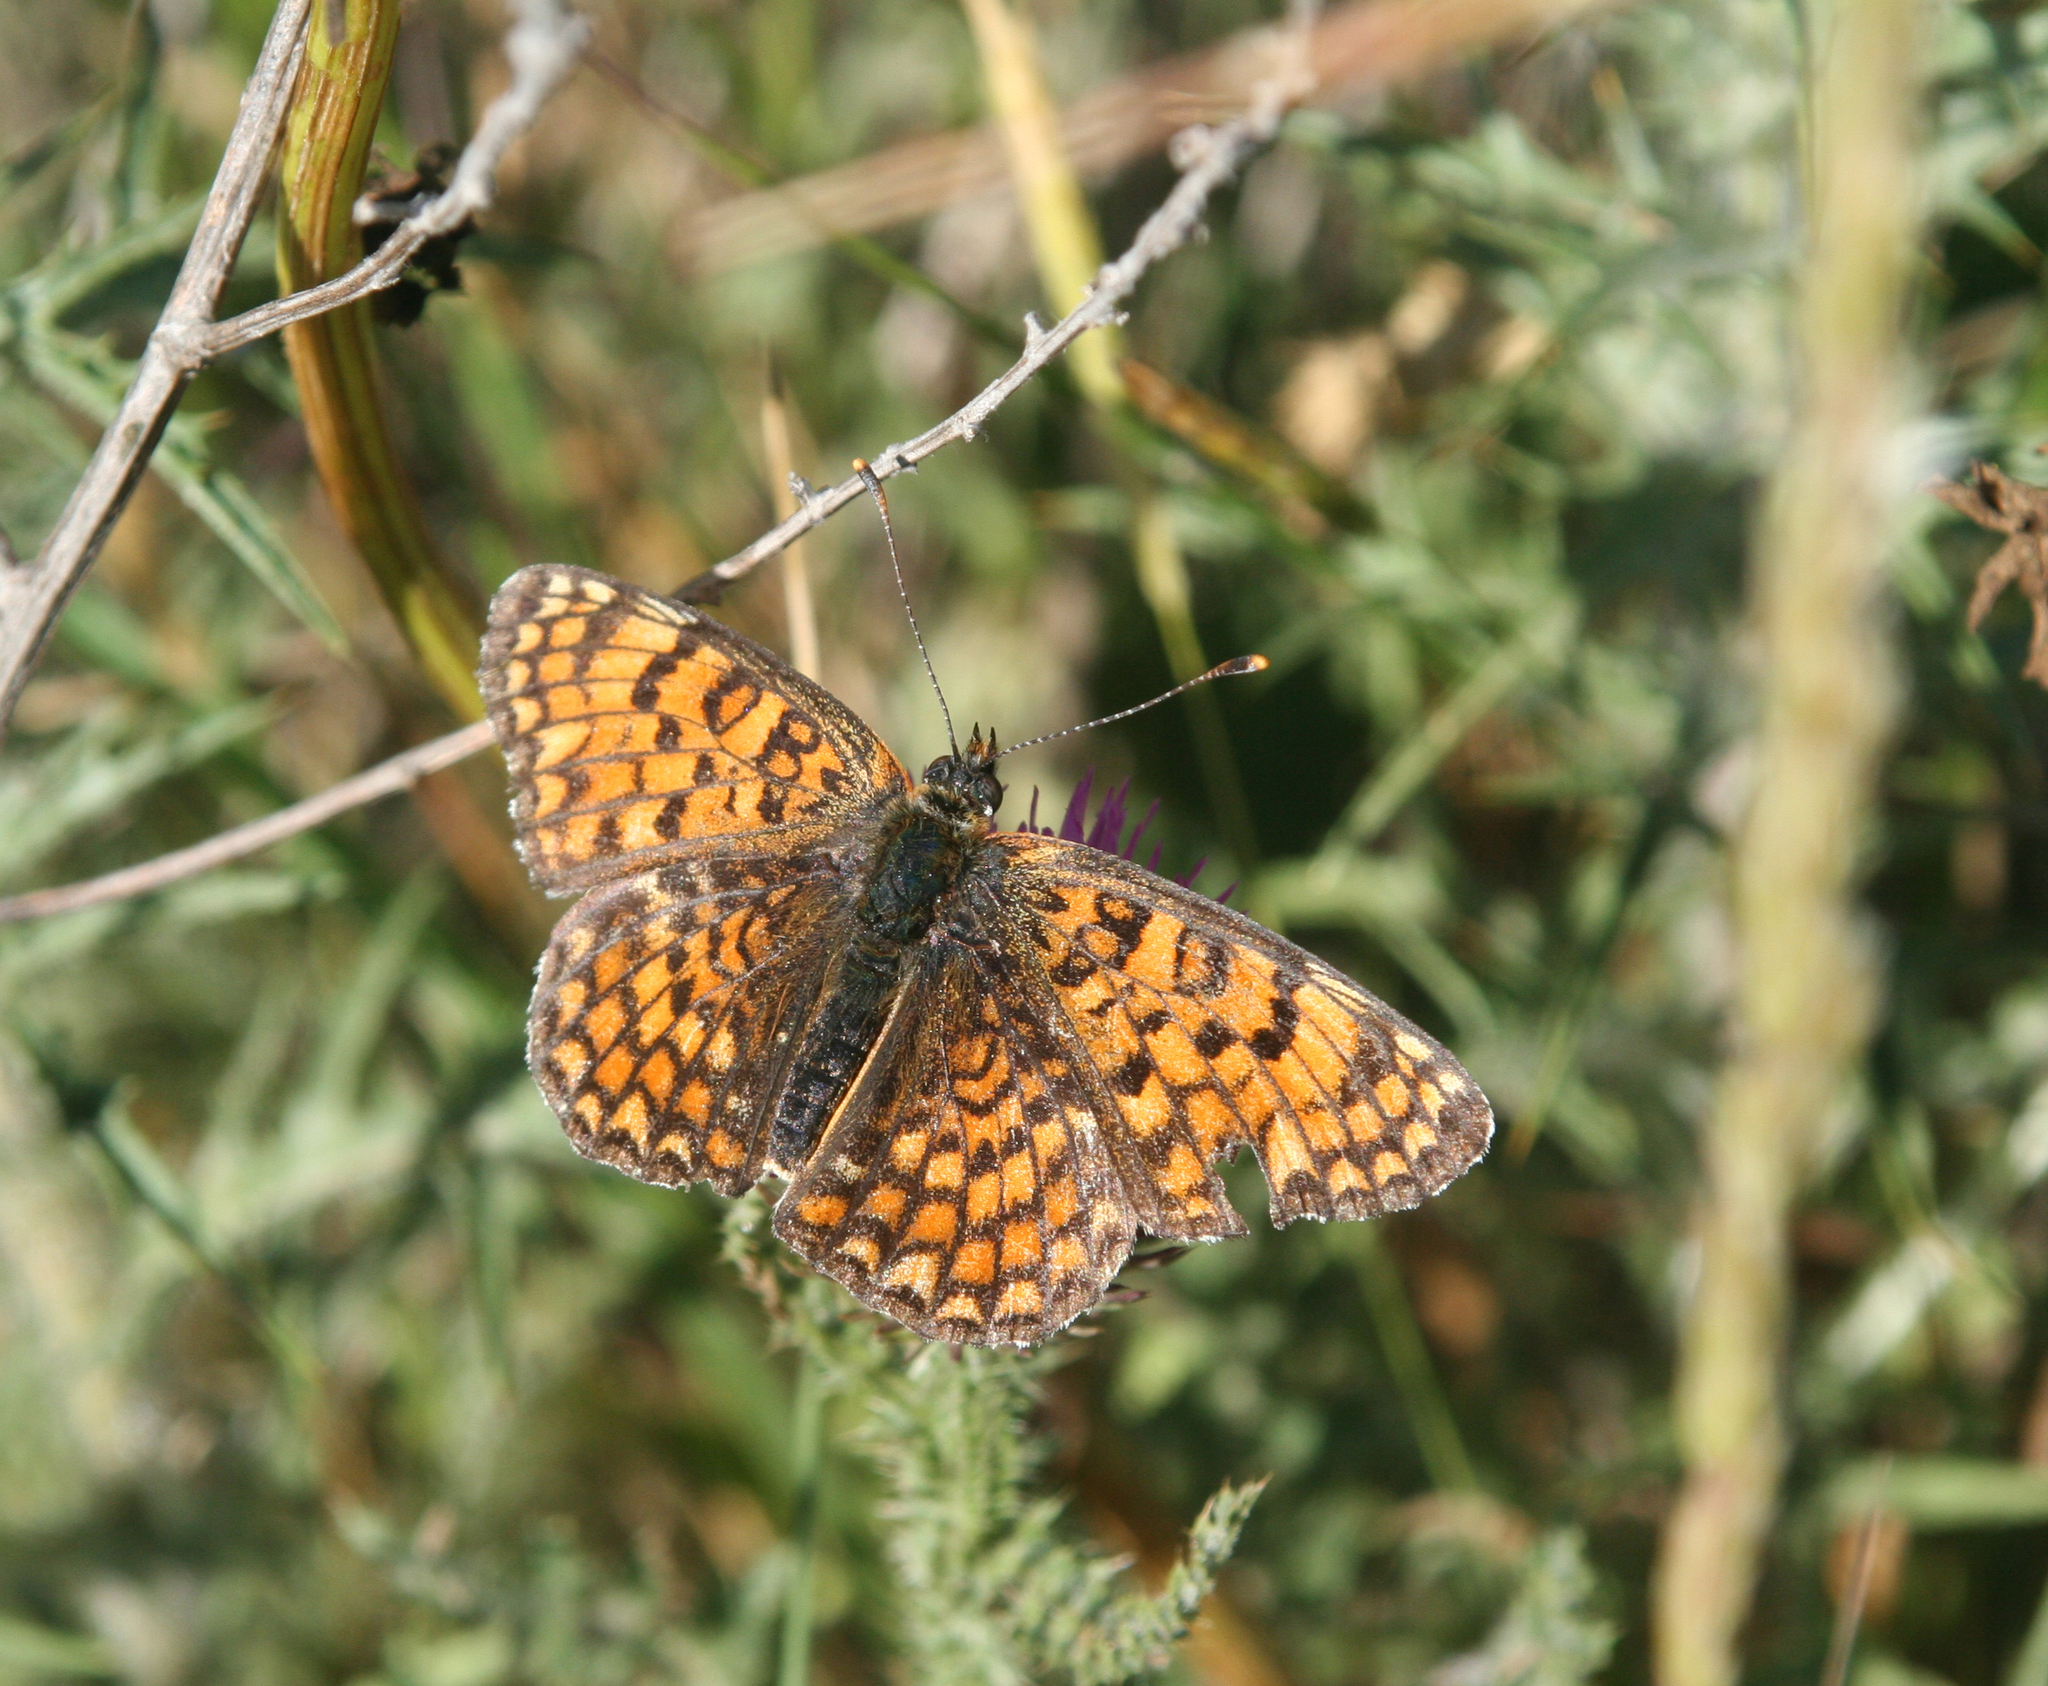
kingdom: Animalia
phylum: Arthropoda
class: Insecta
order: Lepidoptera
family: Nymphalidae
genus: Melitaea
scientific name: Melitaea phoebe
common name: Knapweed fritillary
